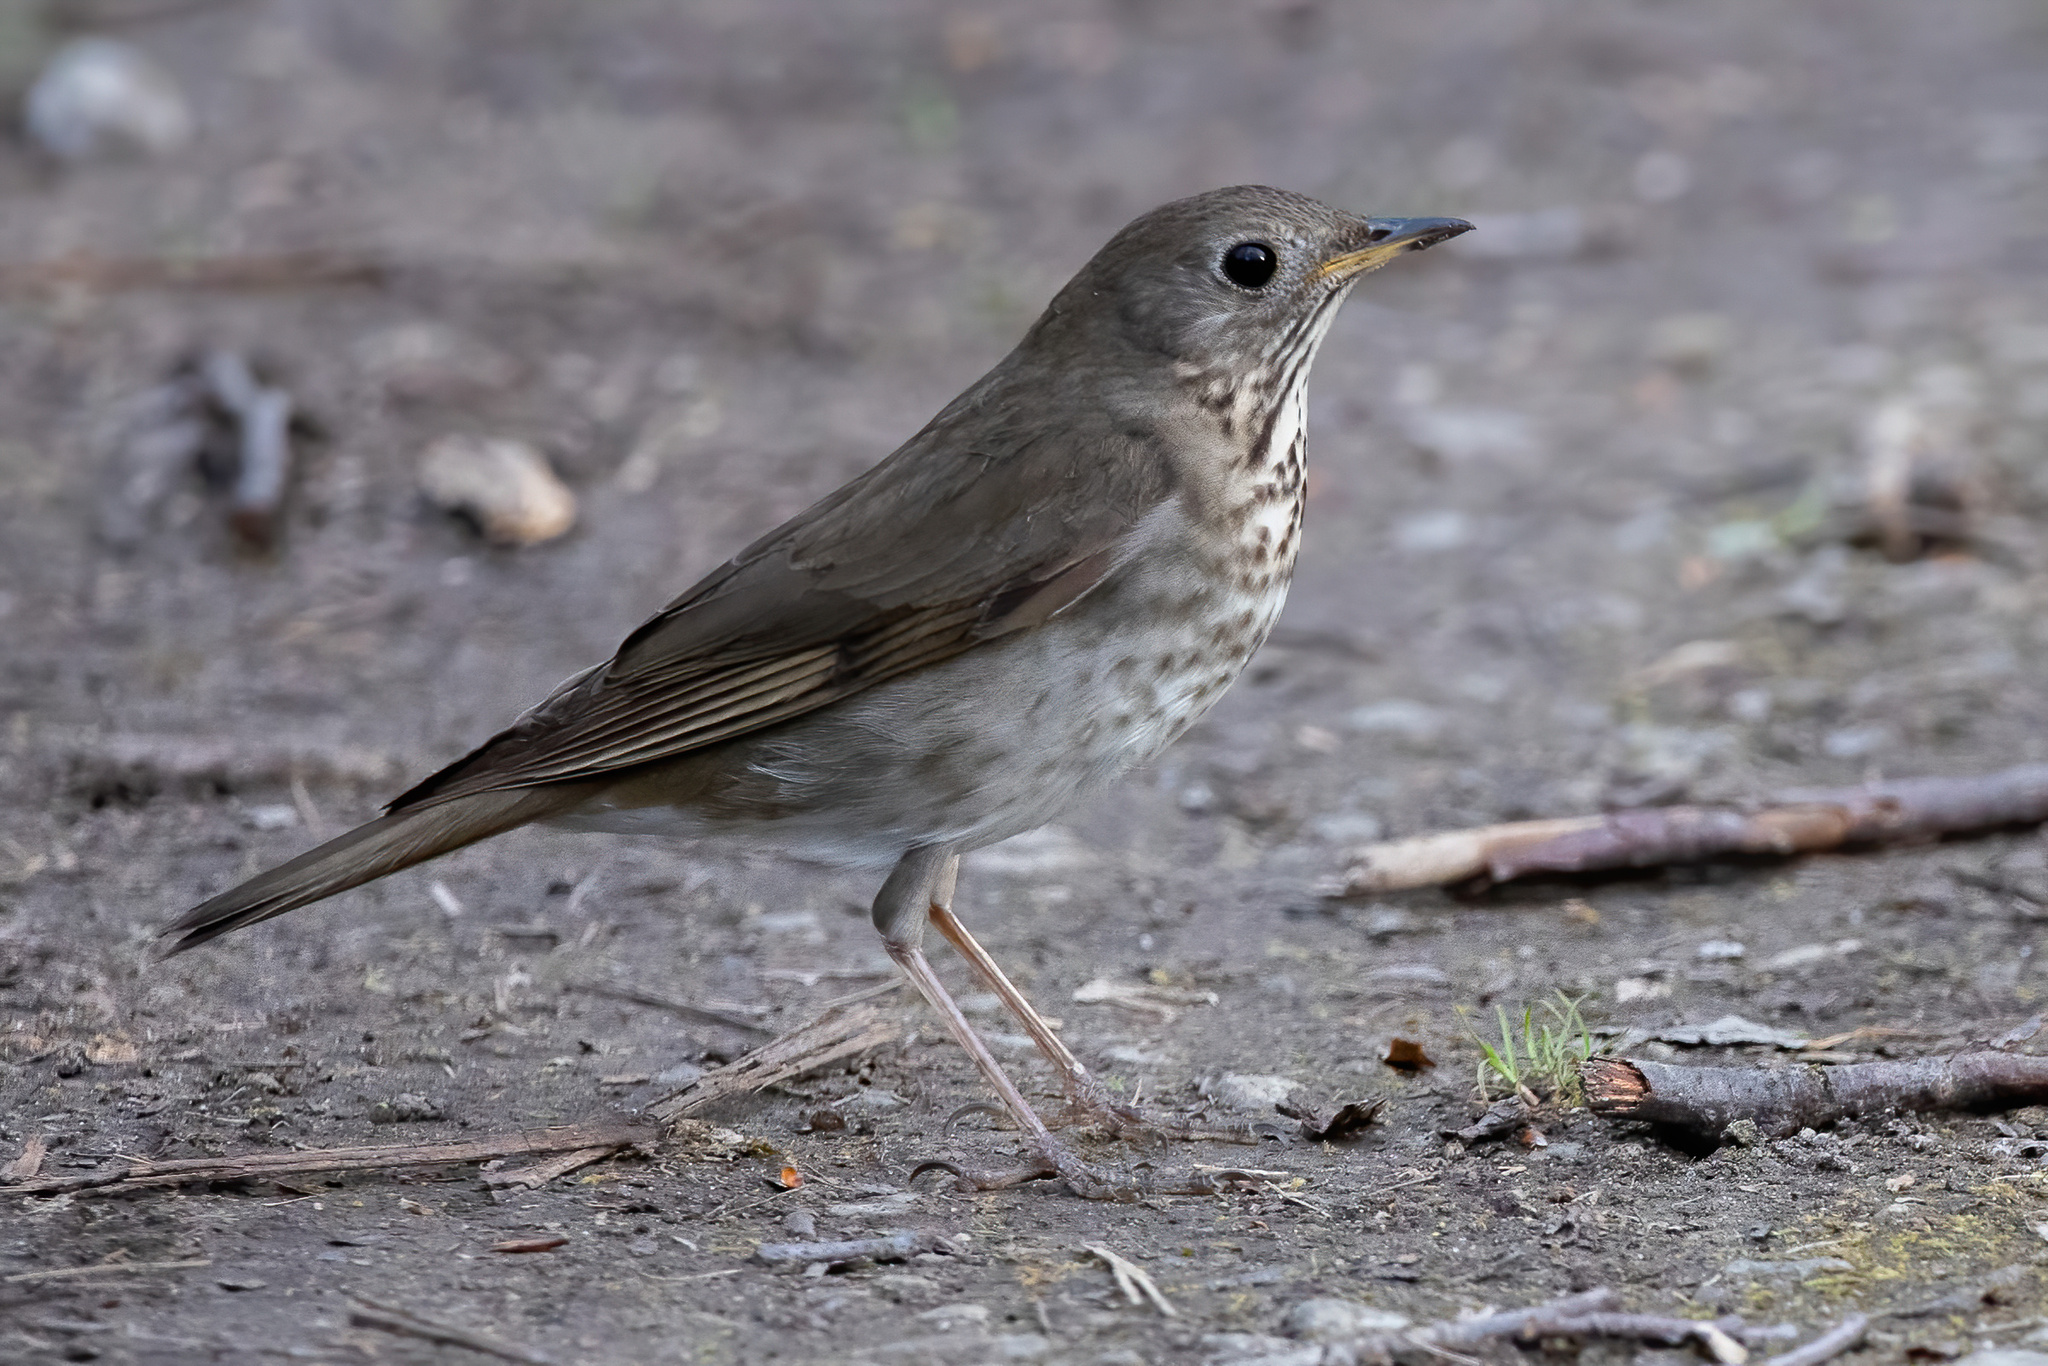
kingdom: Animalia
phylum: Chordata
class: Aves
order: Passeriformes
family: Turdidae
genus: Catharus
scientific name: Catharus minimus
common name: Grey-cheeked thrush
